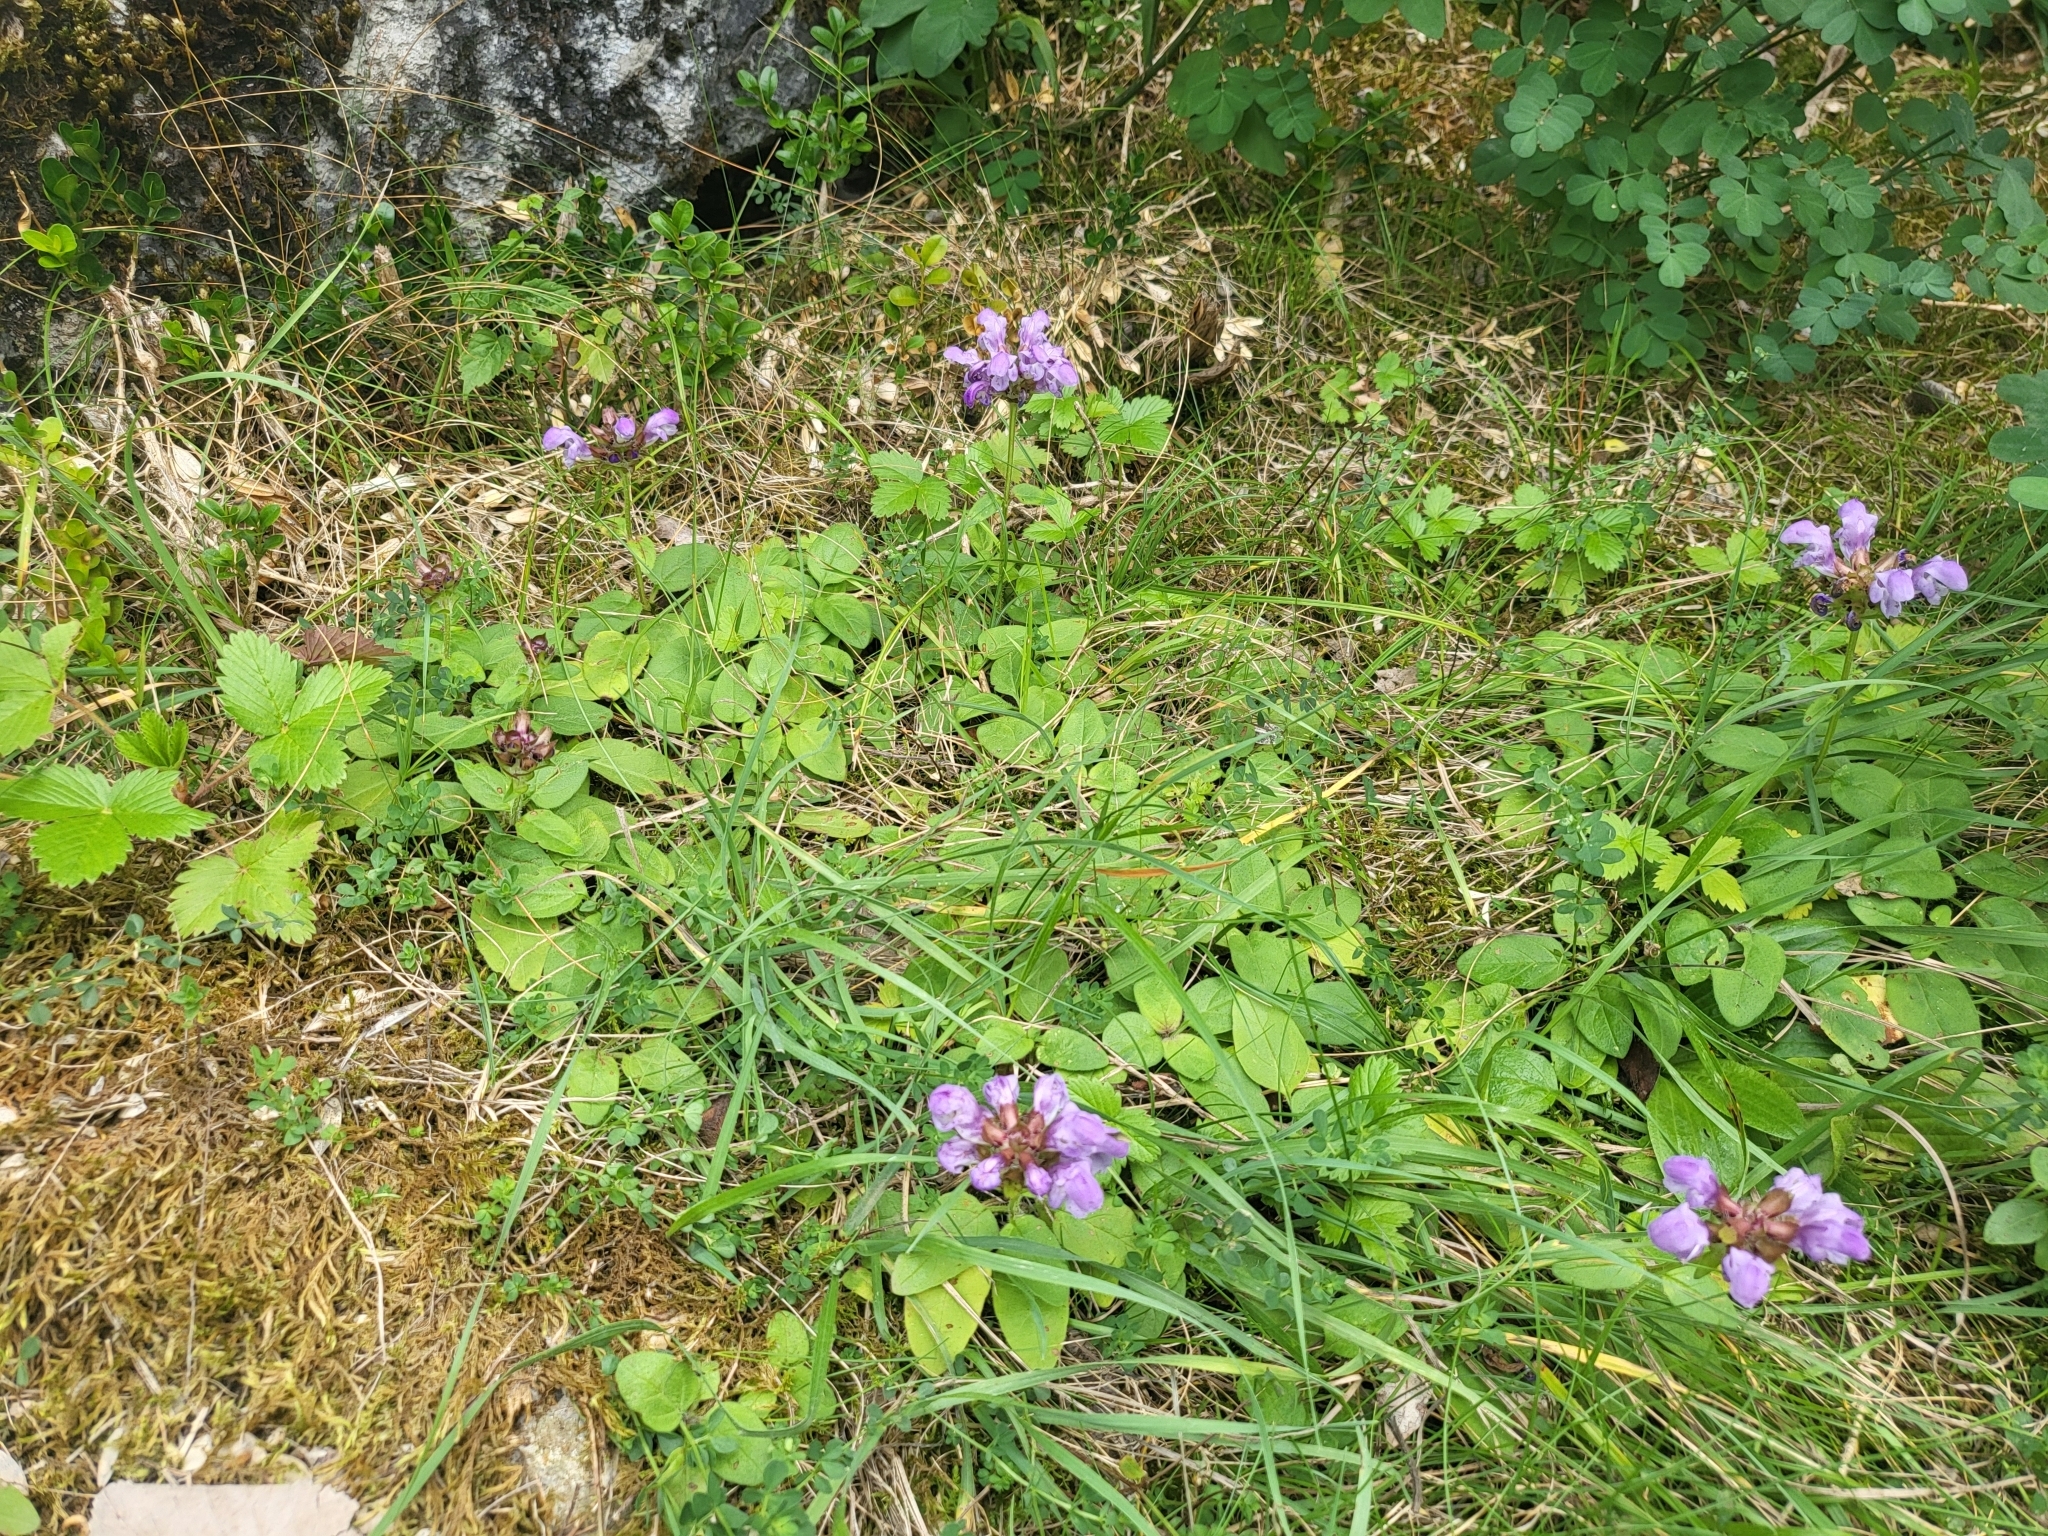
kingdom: Plantae
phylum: Tracheophyta
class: Magnoliopsida
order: Lamiales
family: Lamiaceae
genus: Prunella
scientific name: Prunella grandiflora
